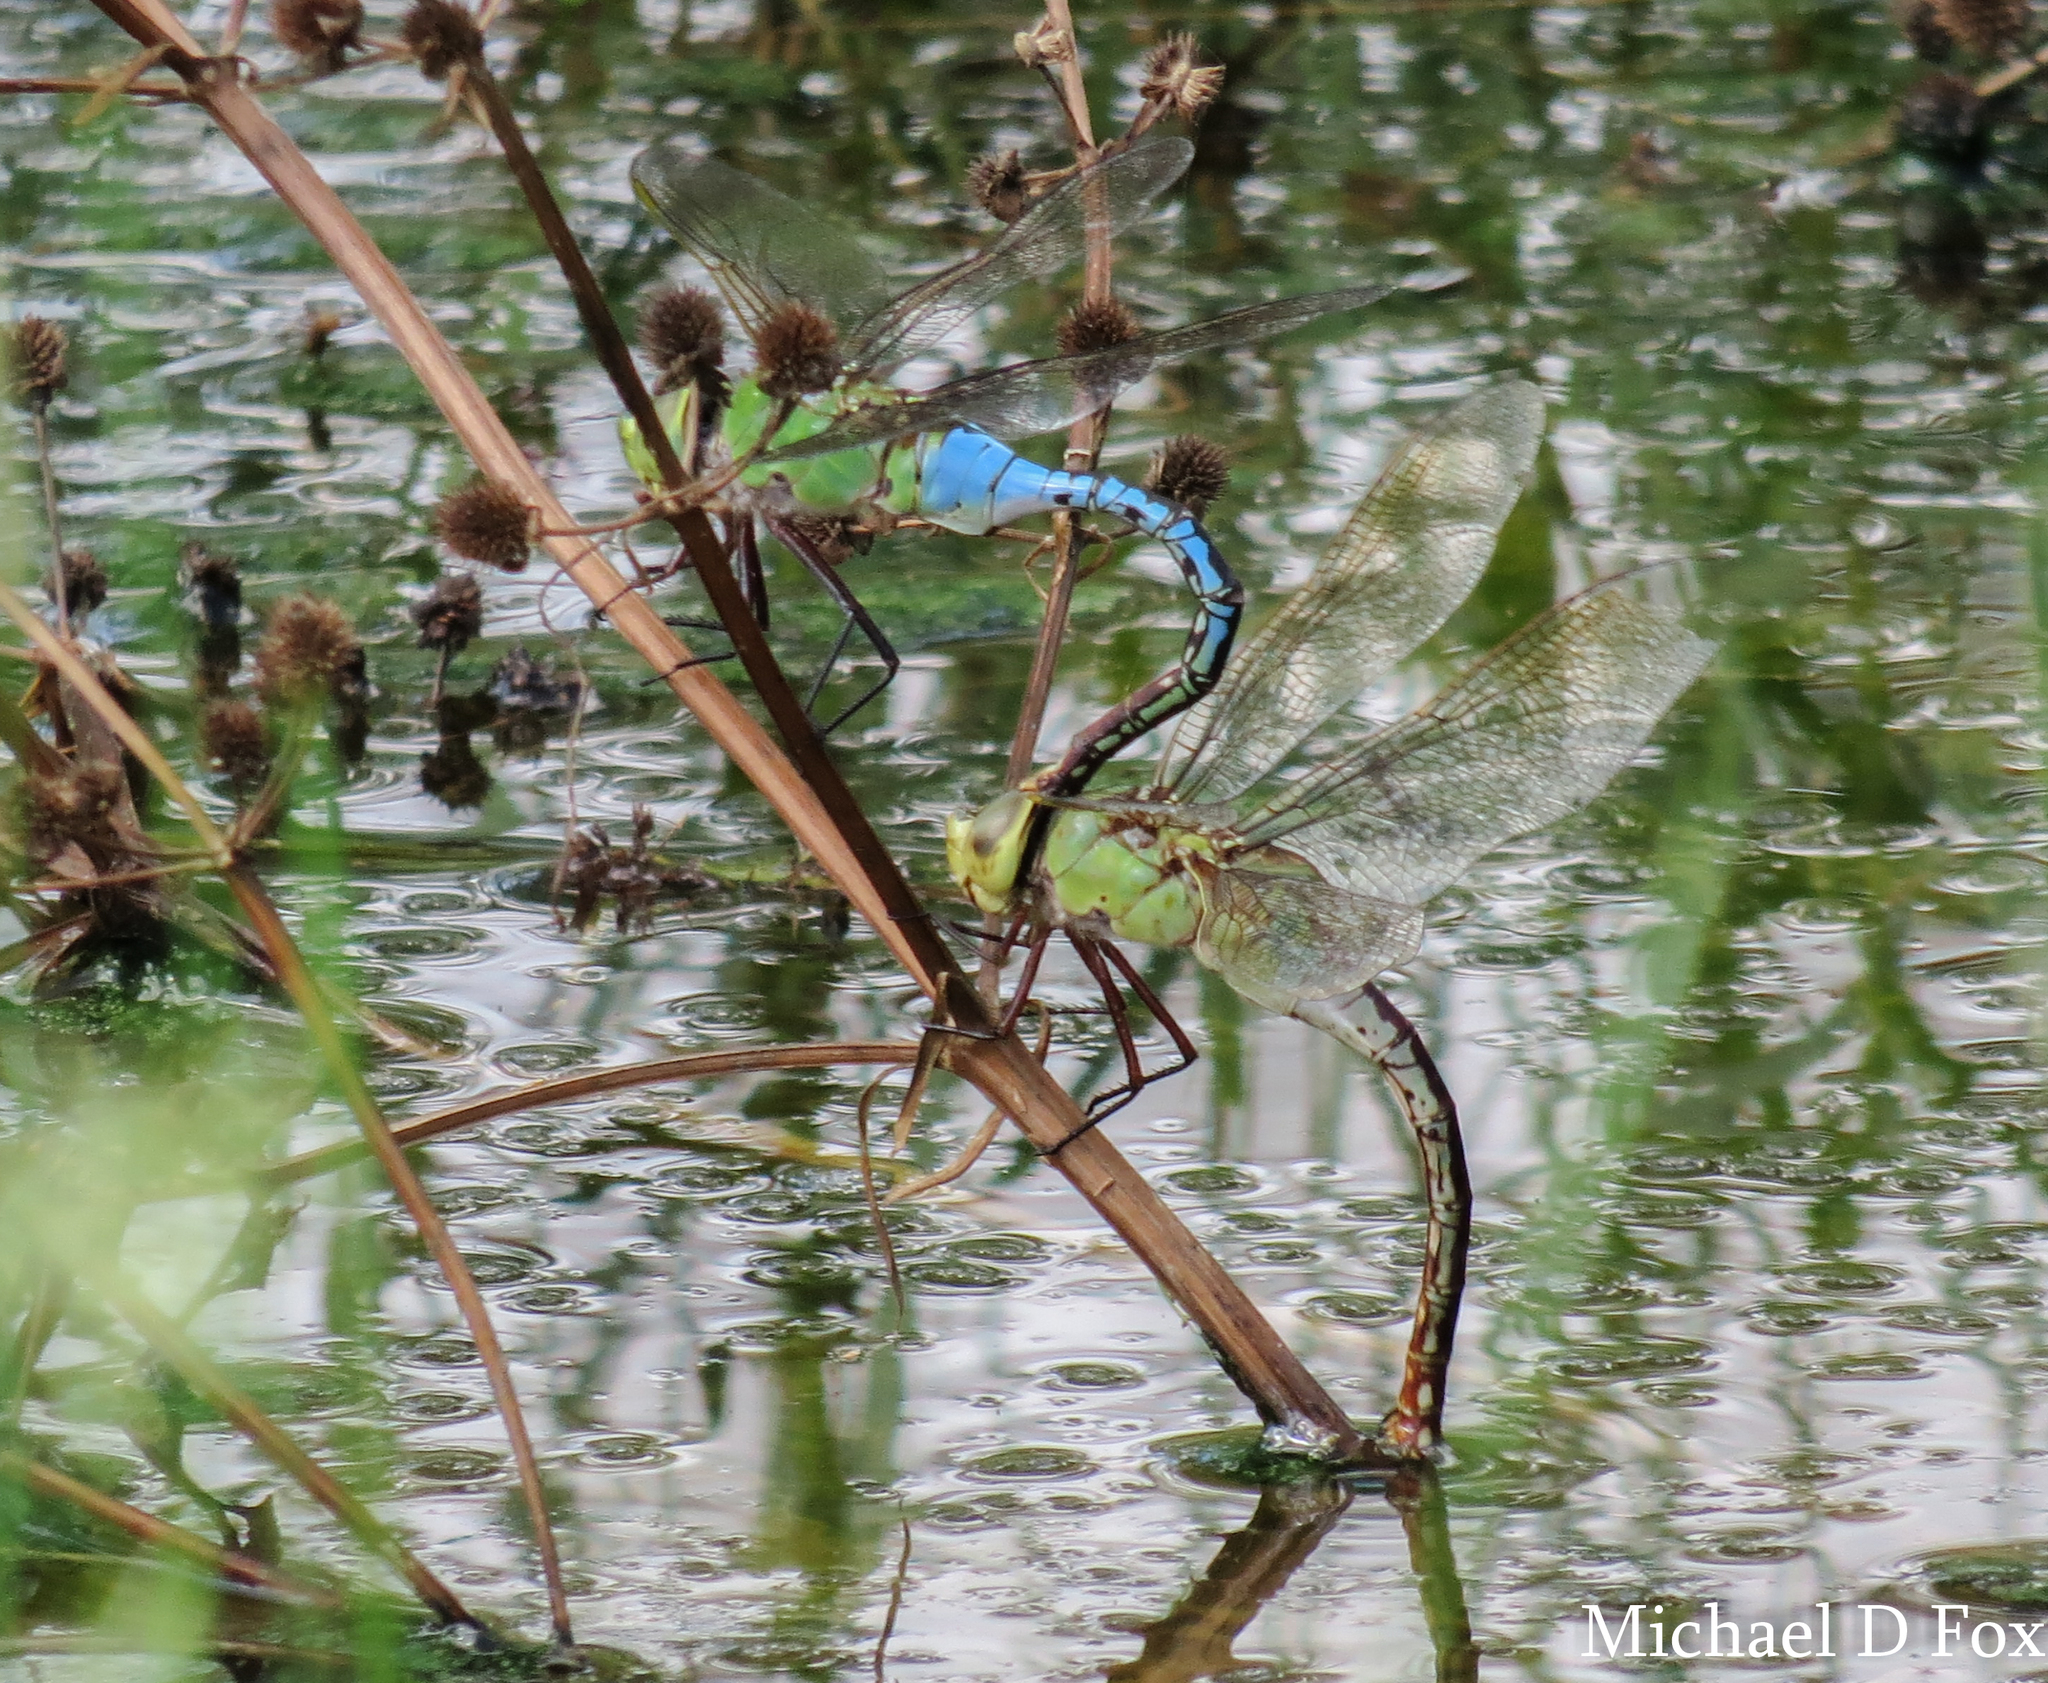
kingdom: Animalia
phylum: Arthropoda
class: Insecta
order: Odonata
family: Aeshnidae
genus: Anax
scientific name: Anax junius
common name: Common green darner
